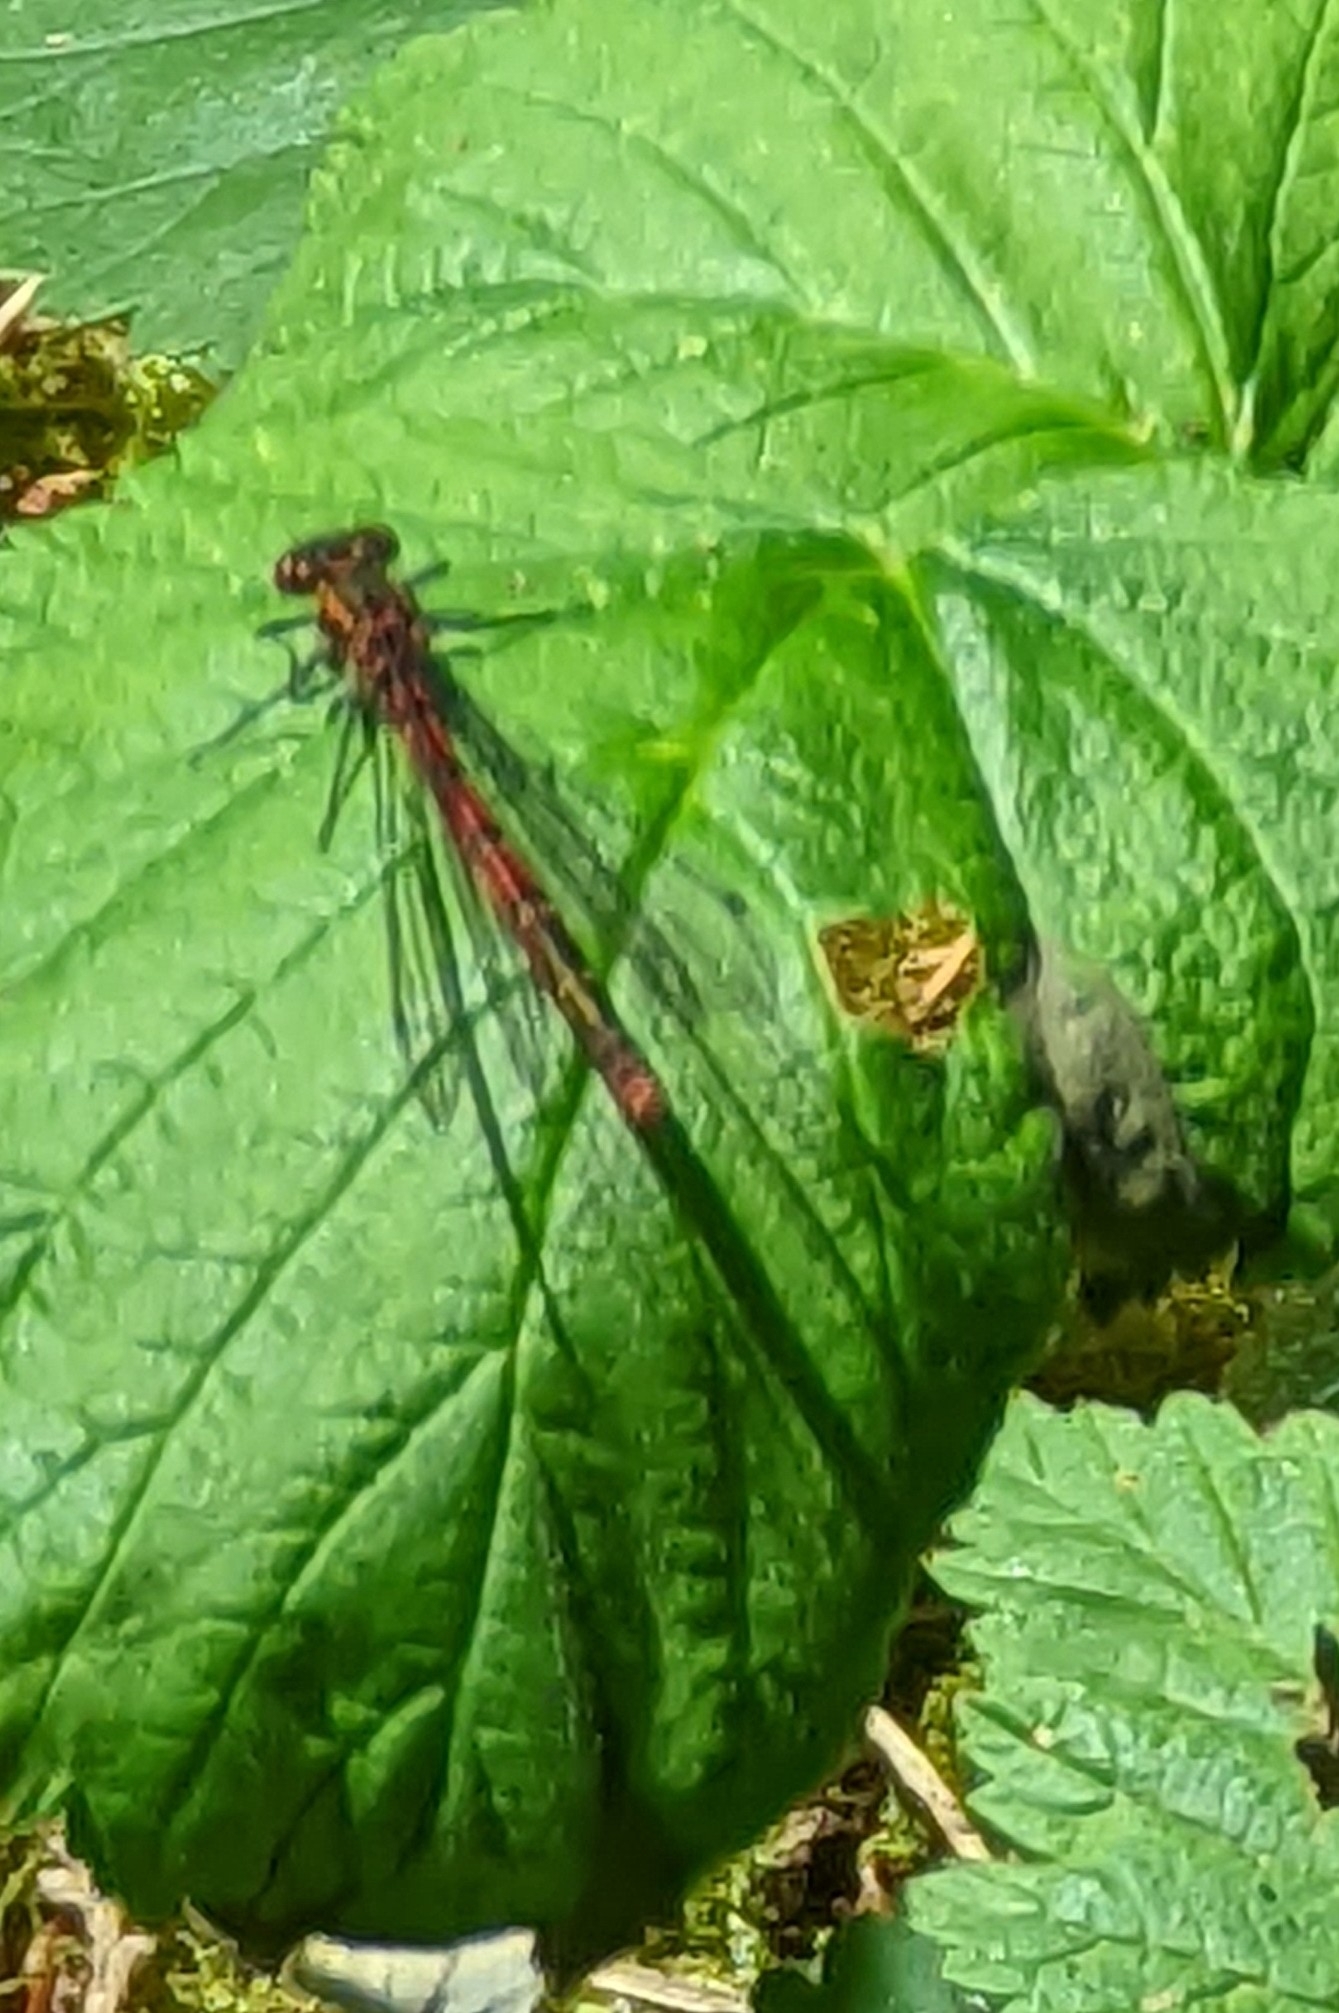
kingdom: Animalia
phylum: Arthropoda
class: Insecta
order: Odonata
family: Coenagrionidae
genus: Pyrrhosoma
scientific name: Pyrrhosoma nymphula
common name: Large red damsel
